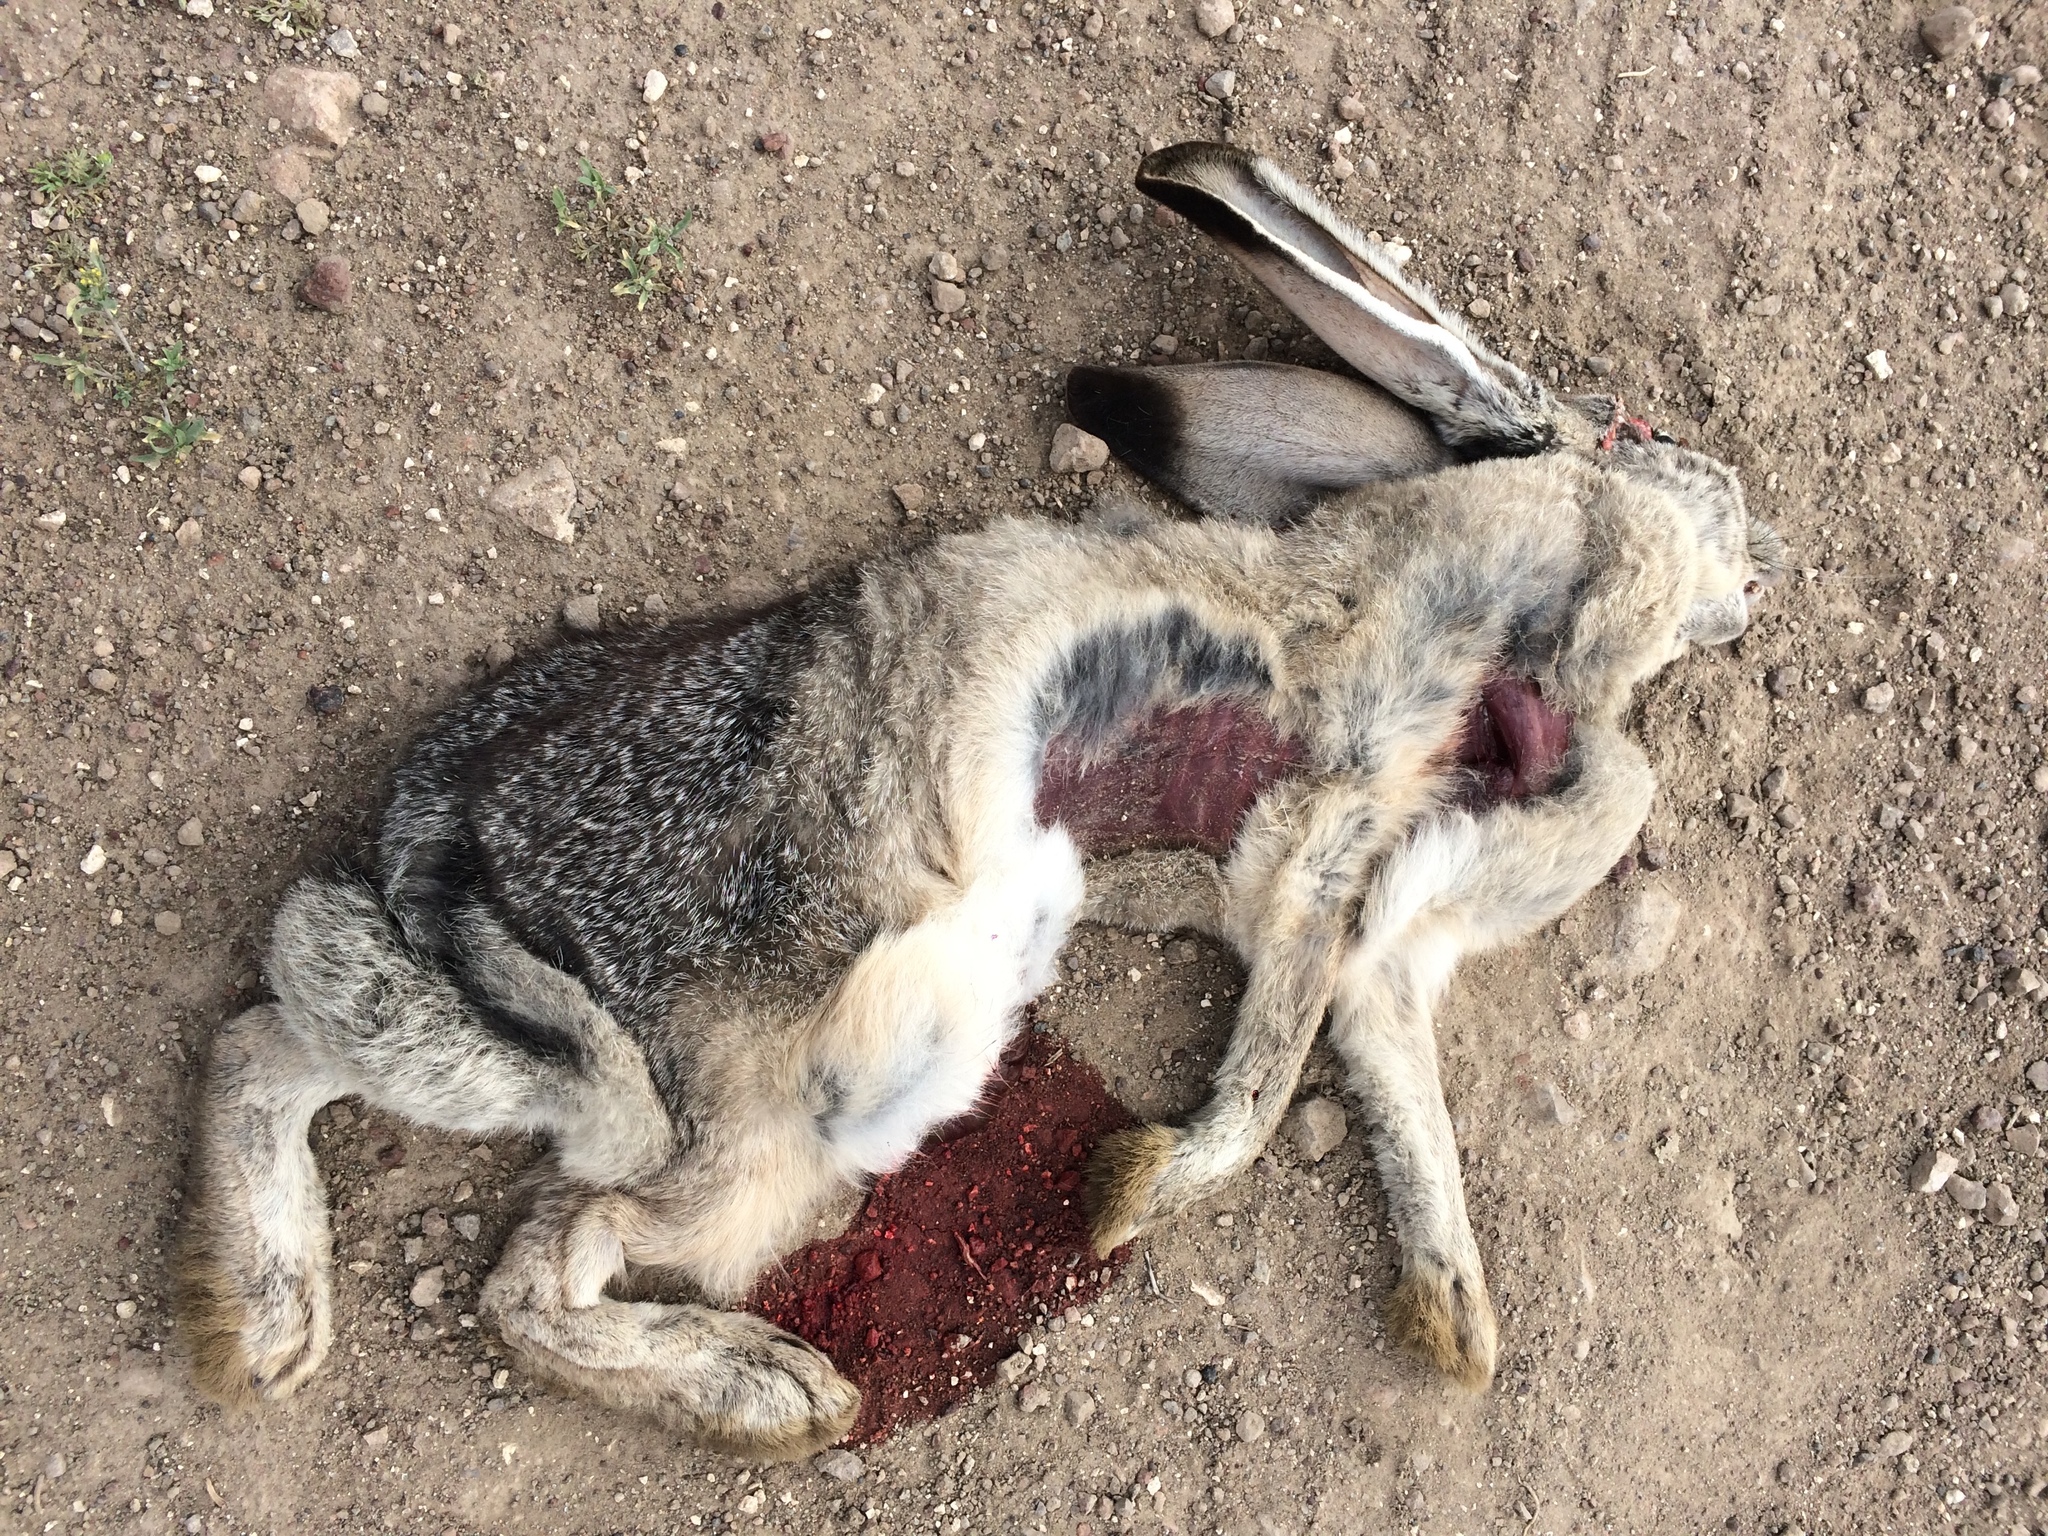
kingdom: Animalia
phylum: Chordata
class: Mammalia
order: Lagomorpha
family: Leporidae
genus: Lepus
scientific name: Lepus californicus
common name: Black-tailed jackrabbit
